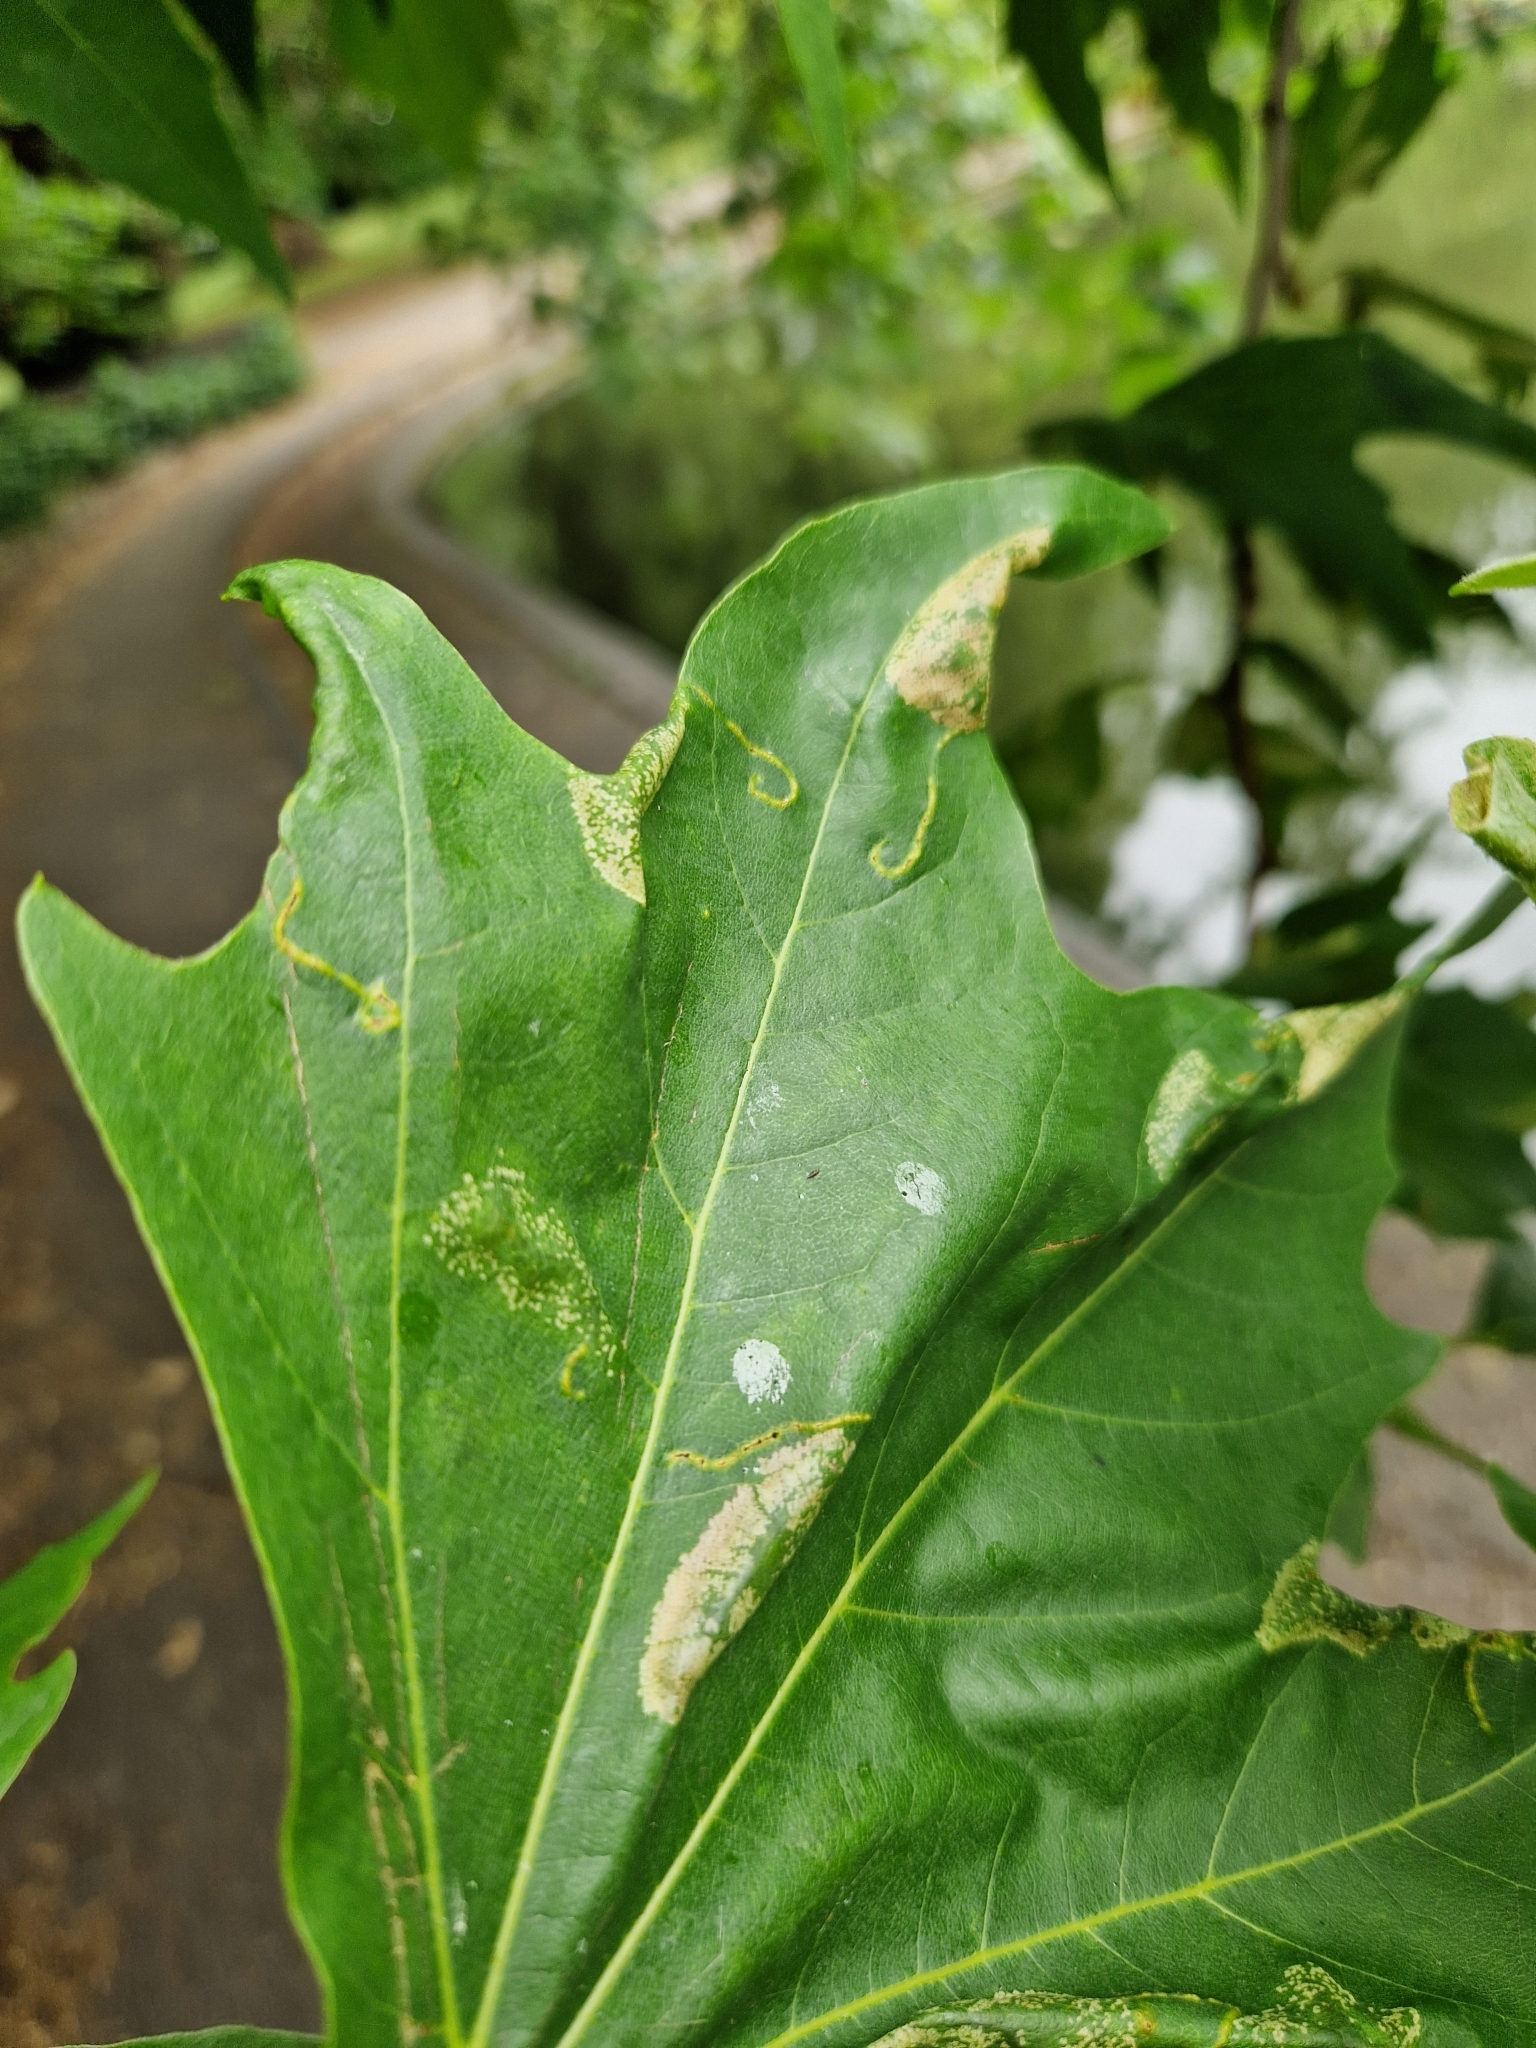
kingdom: Animalia
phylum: Arthropoda
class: Insecta
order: Lepidoptera
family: Gracillariidae
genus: Phyllonorycter
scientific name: Phyllonorycter platani
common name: London midget
